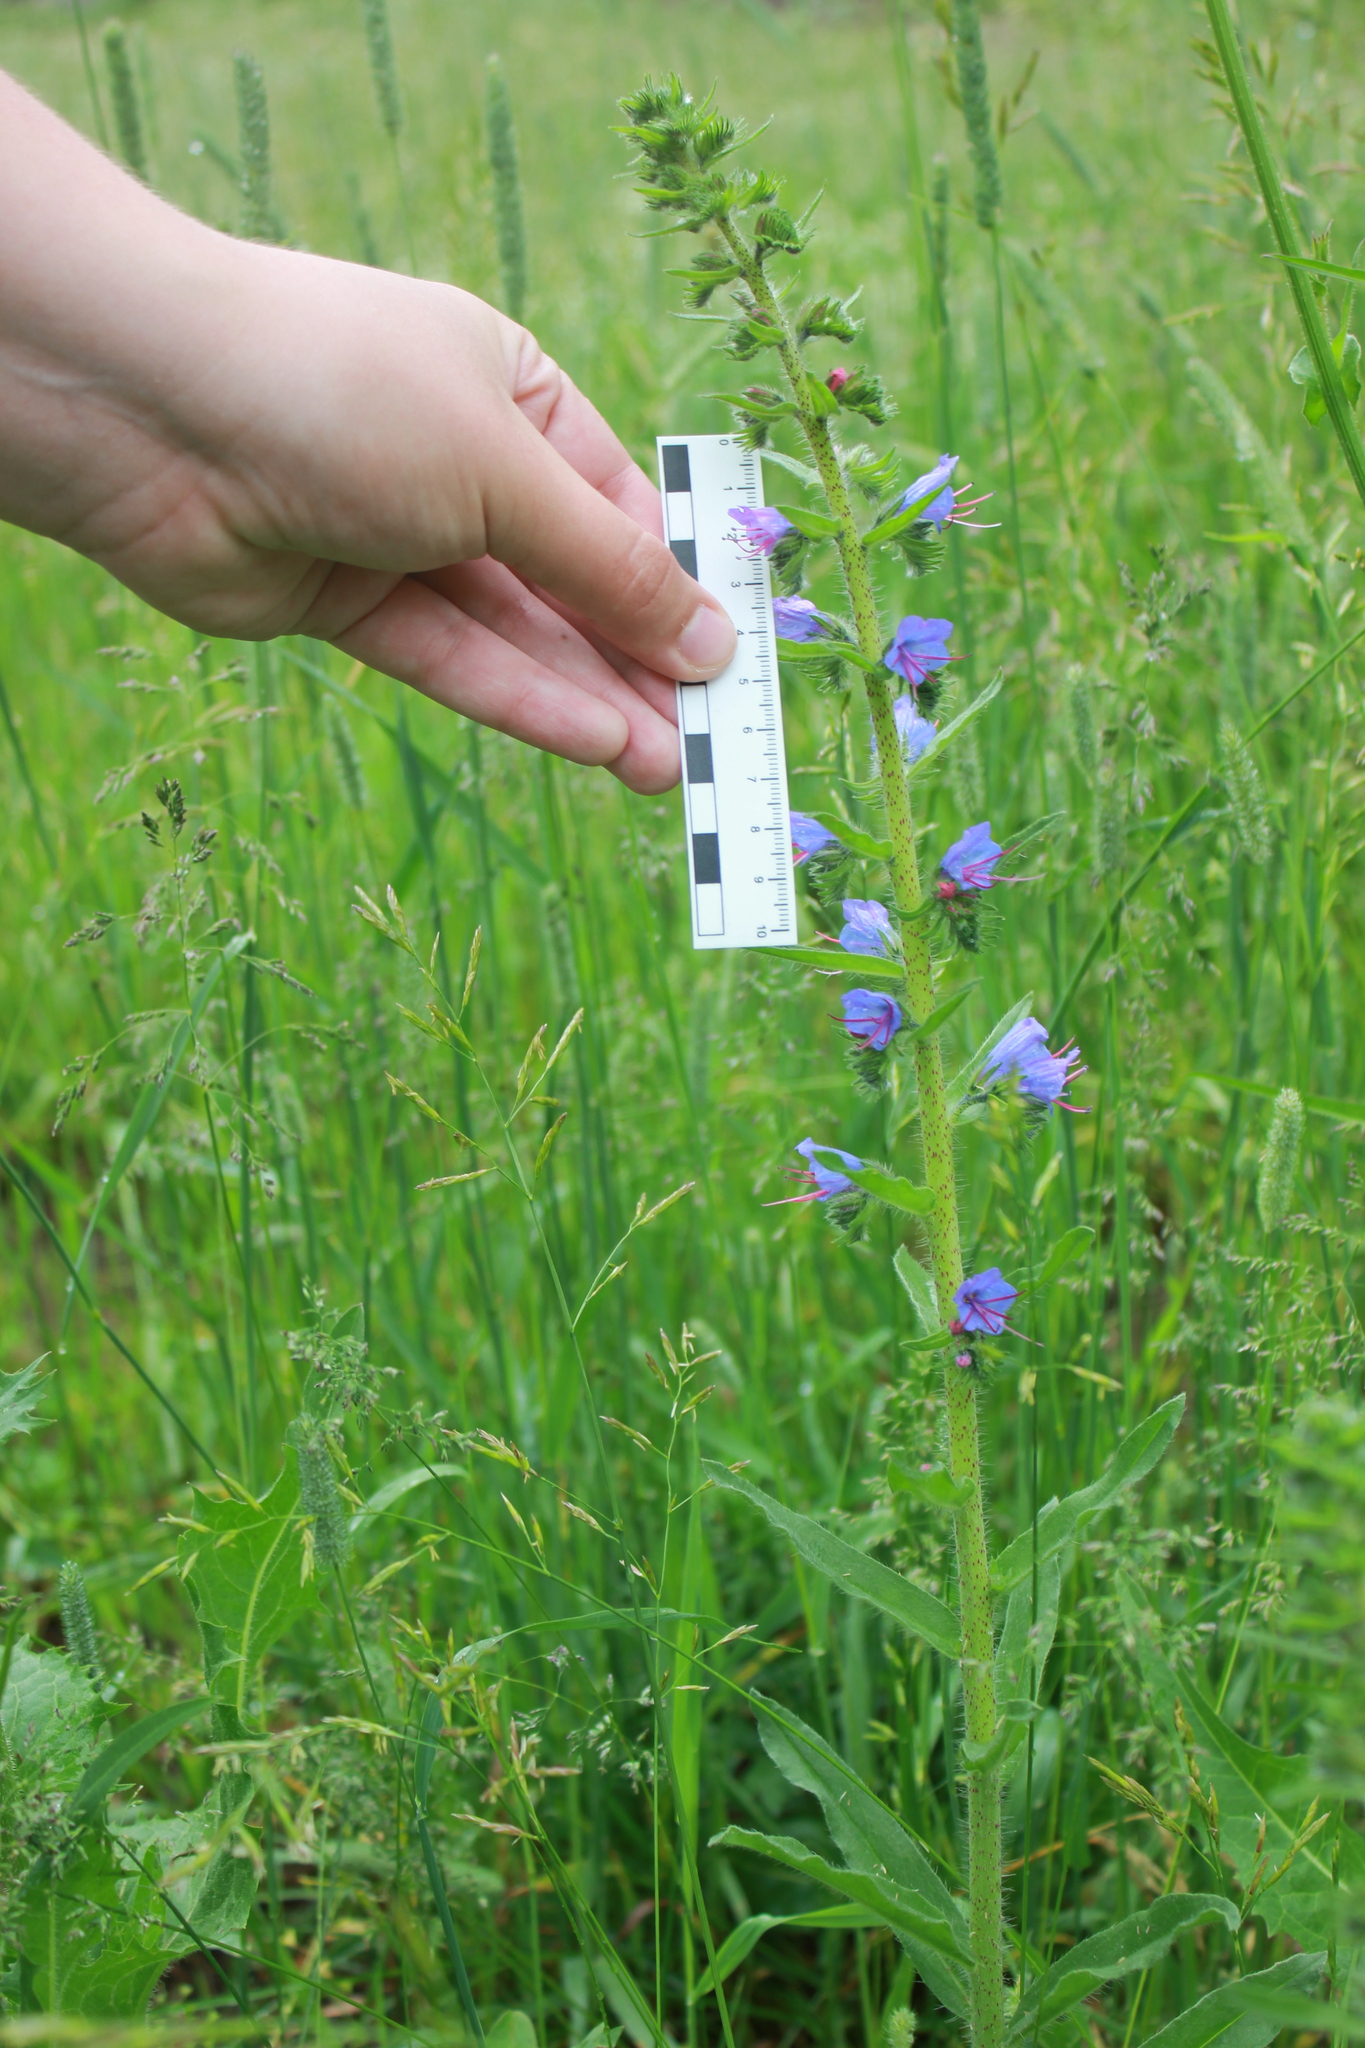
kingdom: Plantae
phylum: Tracheophyta
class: Magnoliopsida
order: Boraginales
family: Boraginaceae
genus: Echium
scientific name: Echium vulgare
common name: Common viper's bugloss
